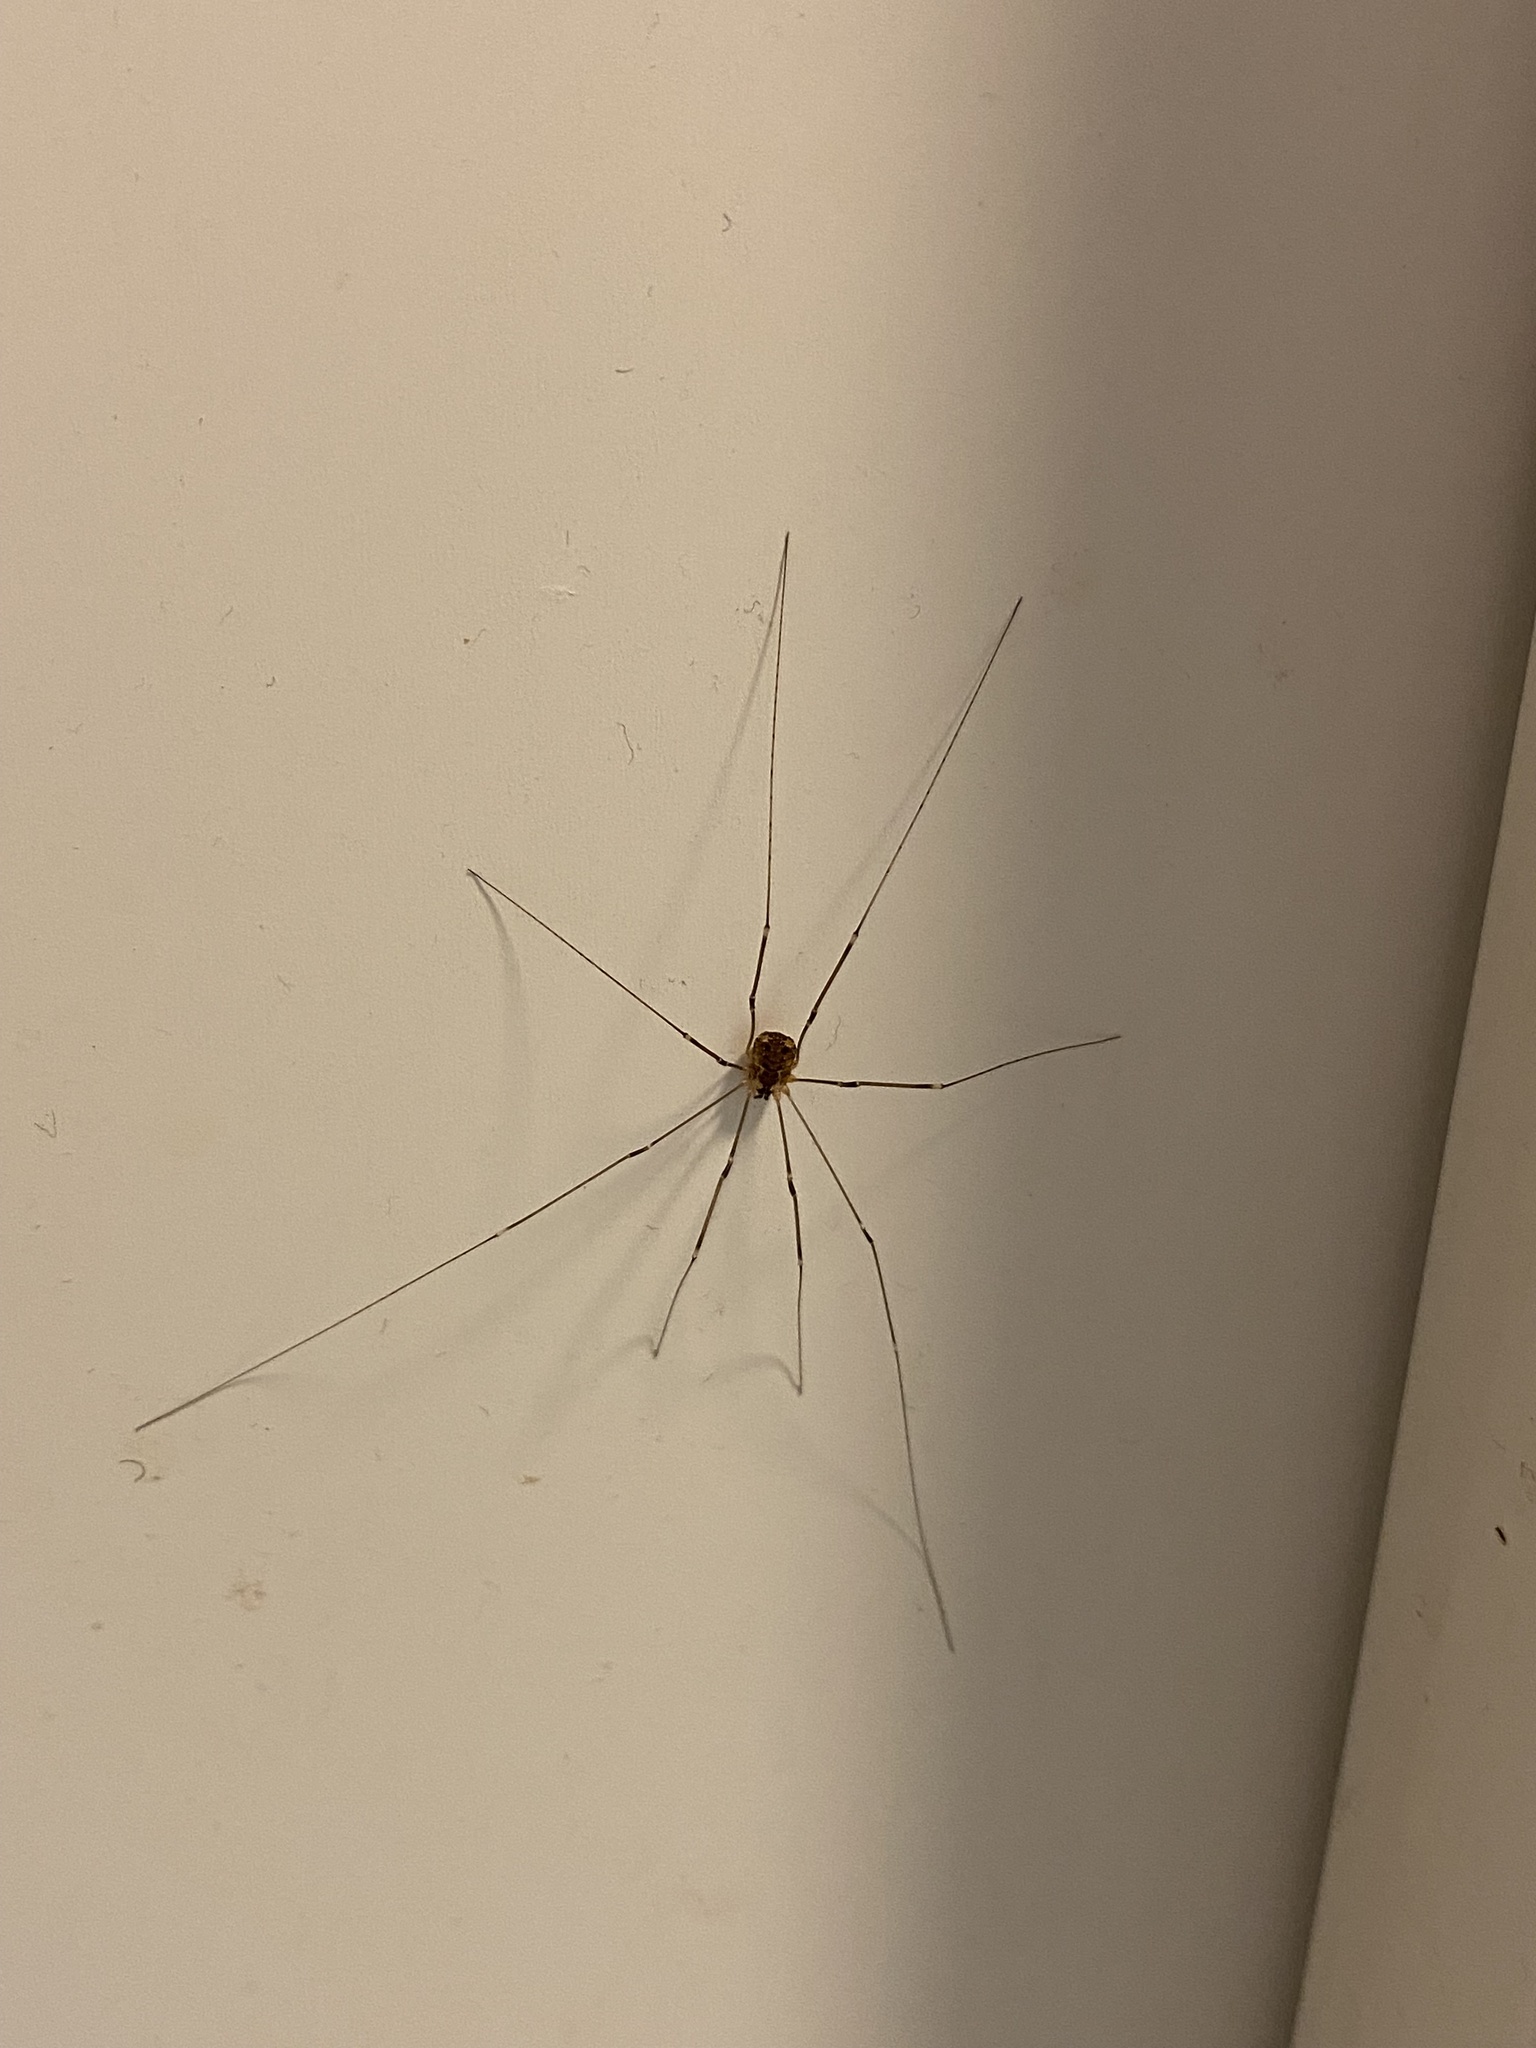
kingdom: Animalia
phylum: Arthropoda
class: Arachnida
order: Opiliones
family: Sclerosomatidae
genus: Leiobunum
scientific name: Leiobunum gracile
